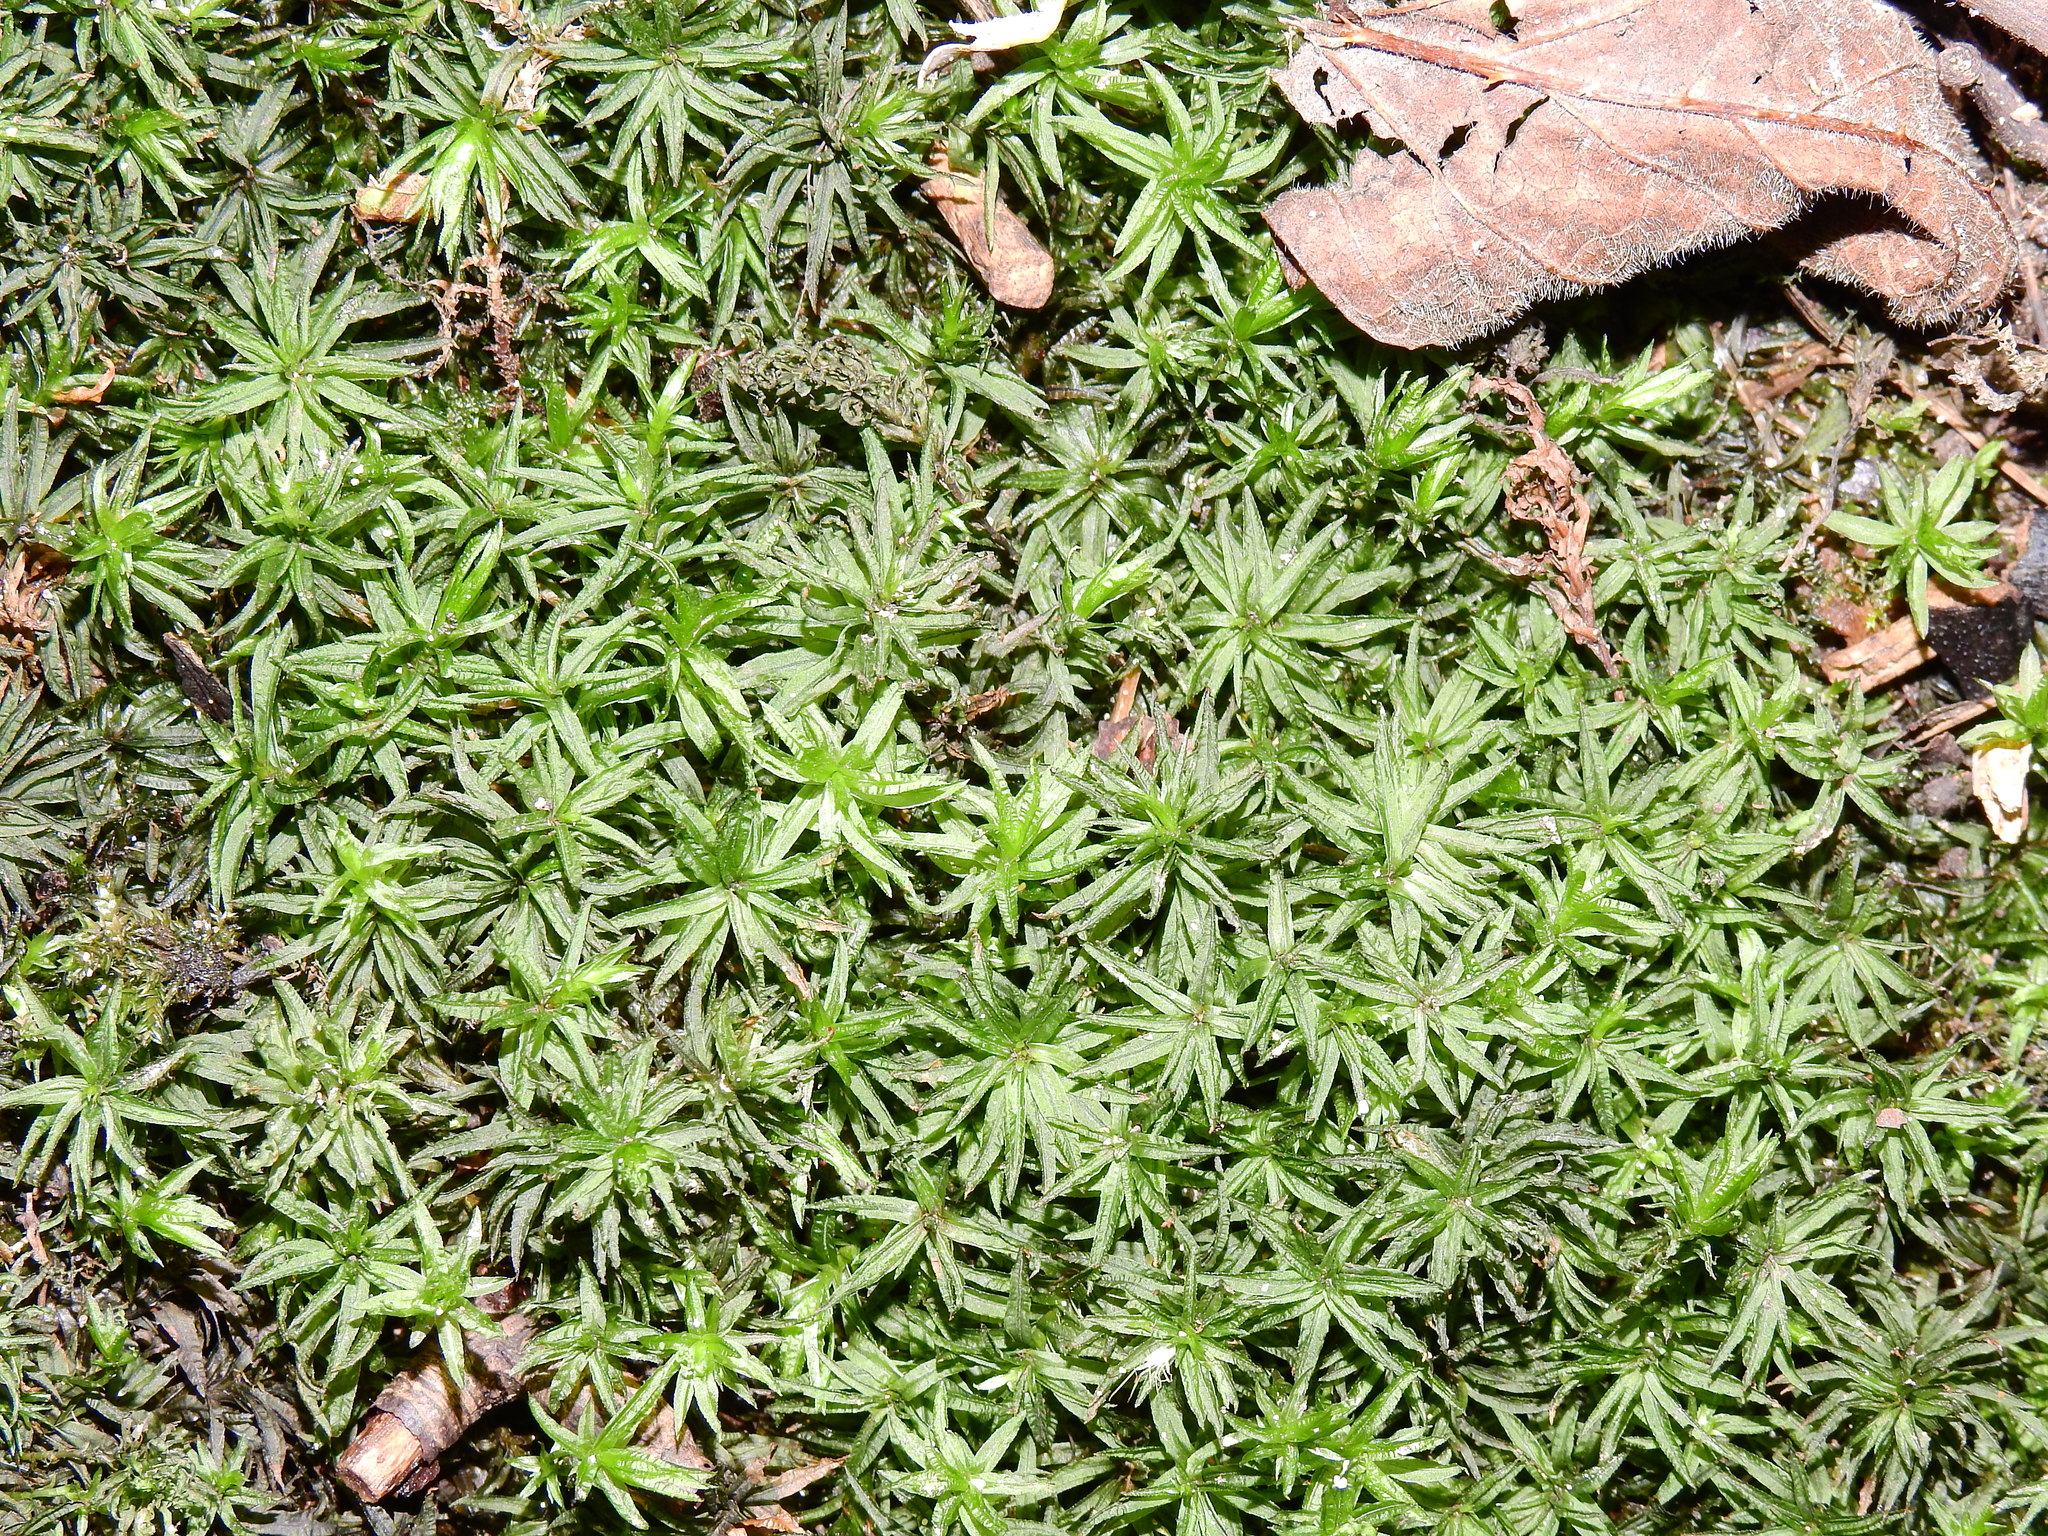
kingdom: Plantae
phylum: Bryophyta
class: Polytrichopsida
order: Polytrichales
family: Polytrichaceae
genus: Atrichum
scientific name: Atrichum undulatum
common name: Common smoothcap
